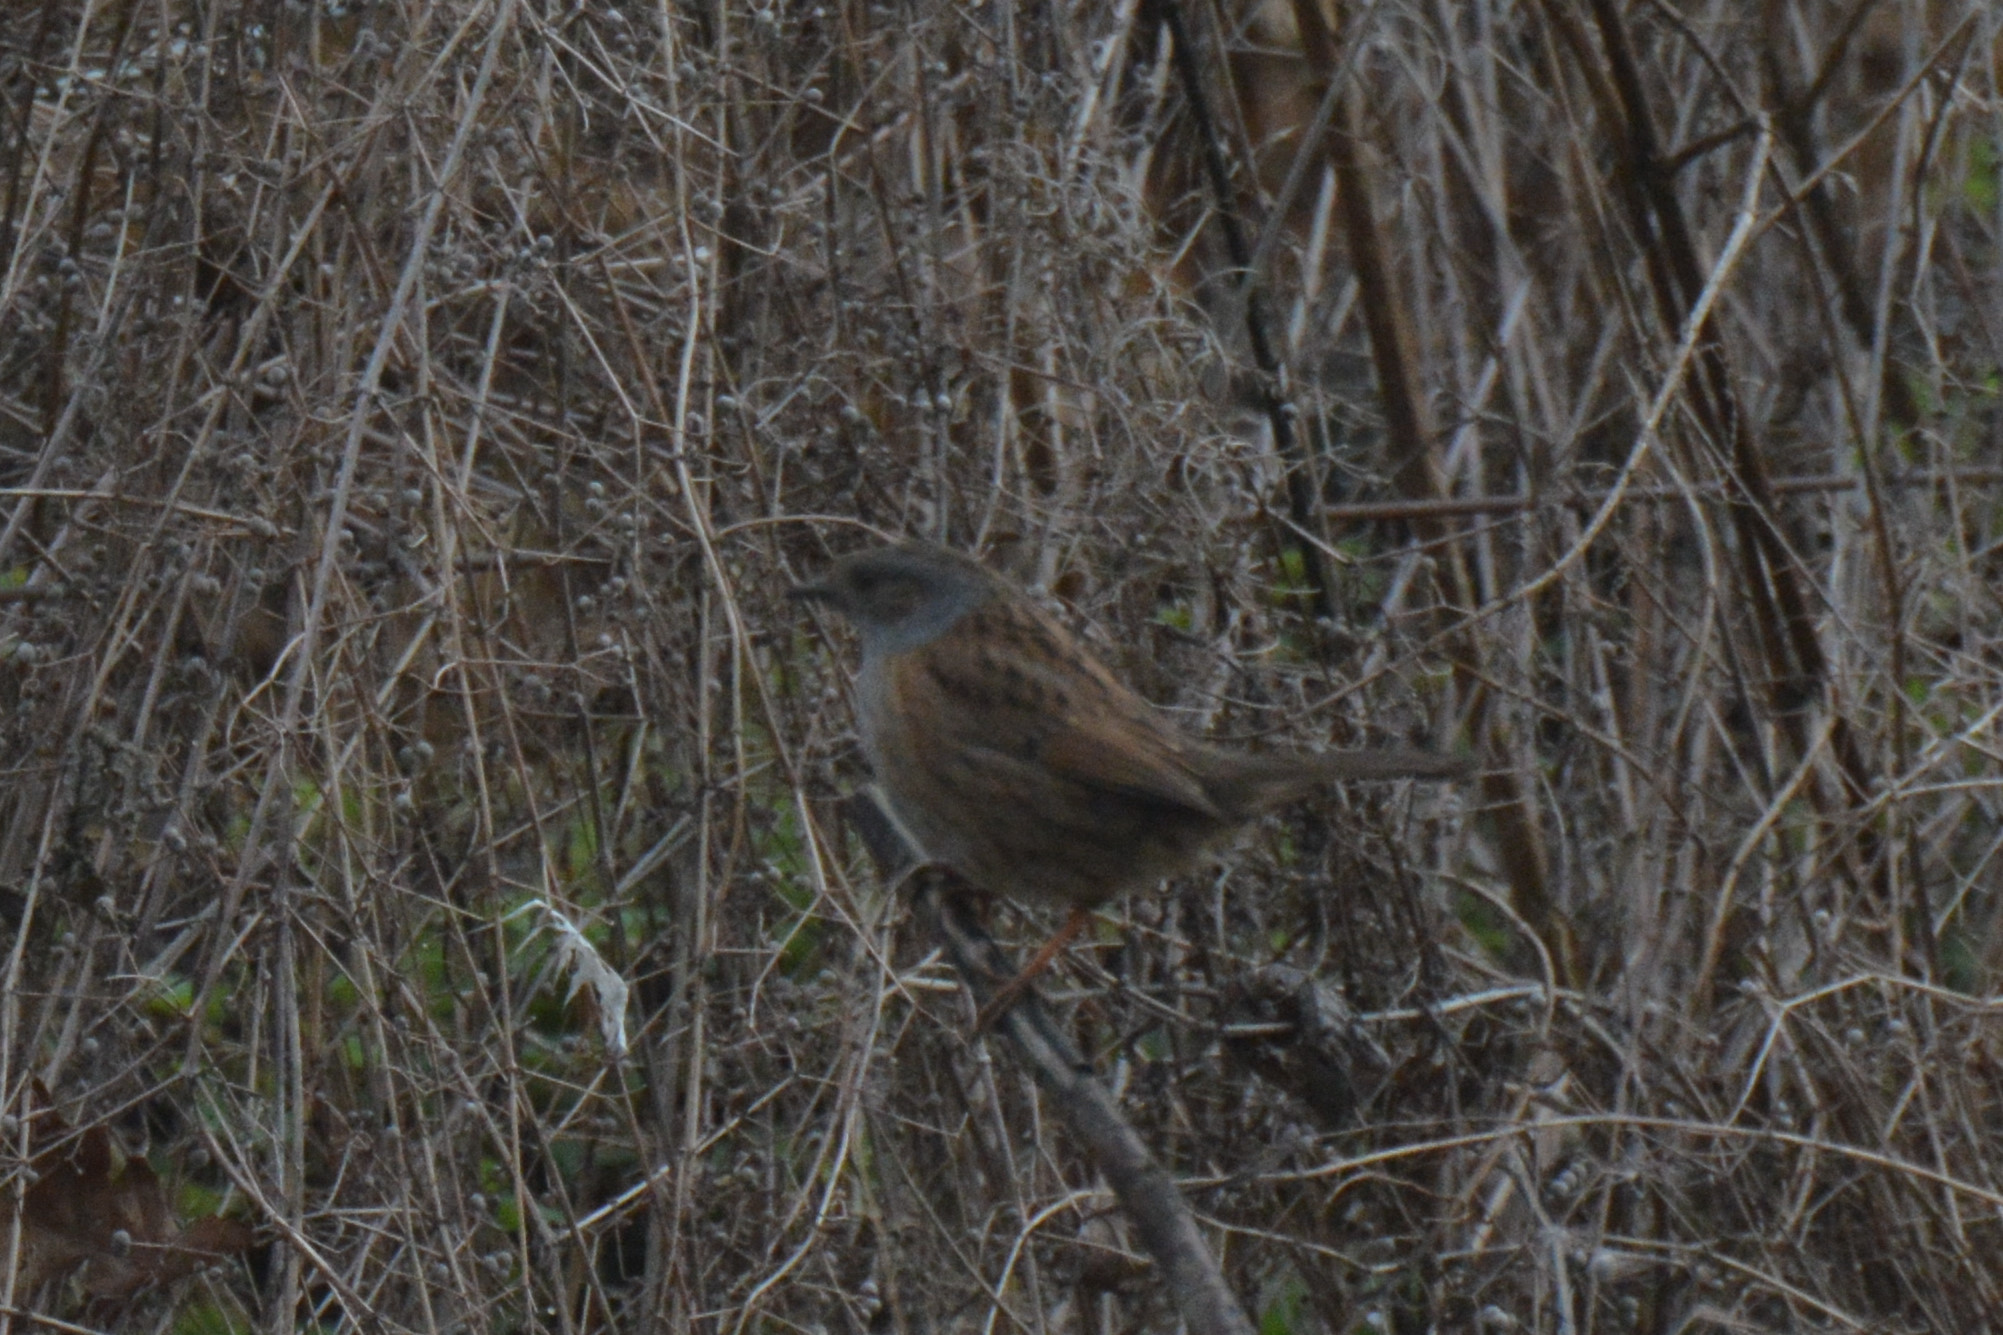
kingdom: Animalia
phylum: Chordata
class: Aves
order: Passeriformes
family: Prunellidae
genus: Prunella
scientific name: Prunella modularis
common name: Dunnock
